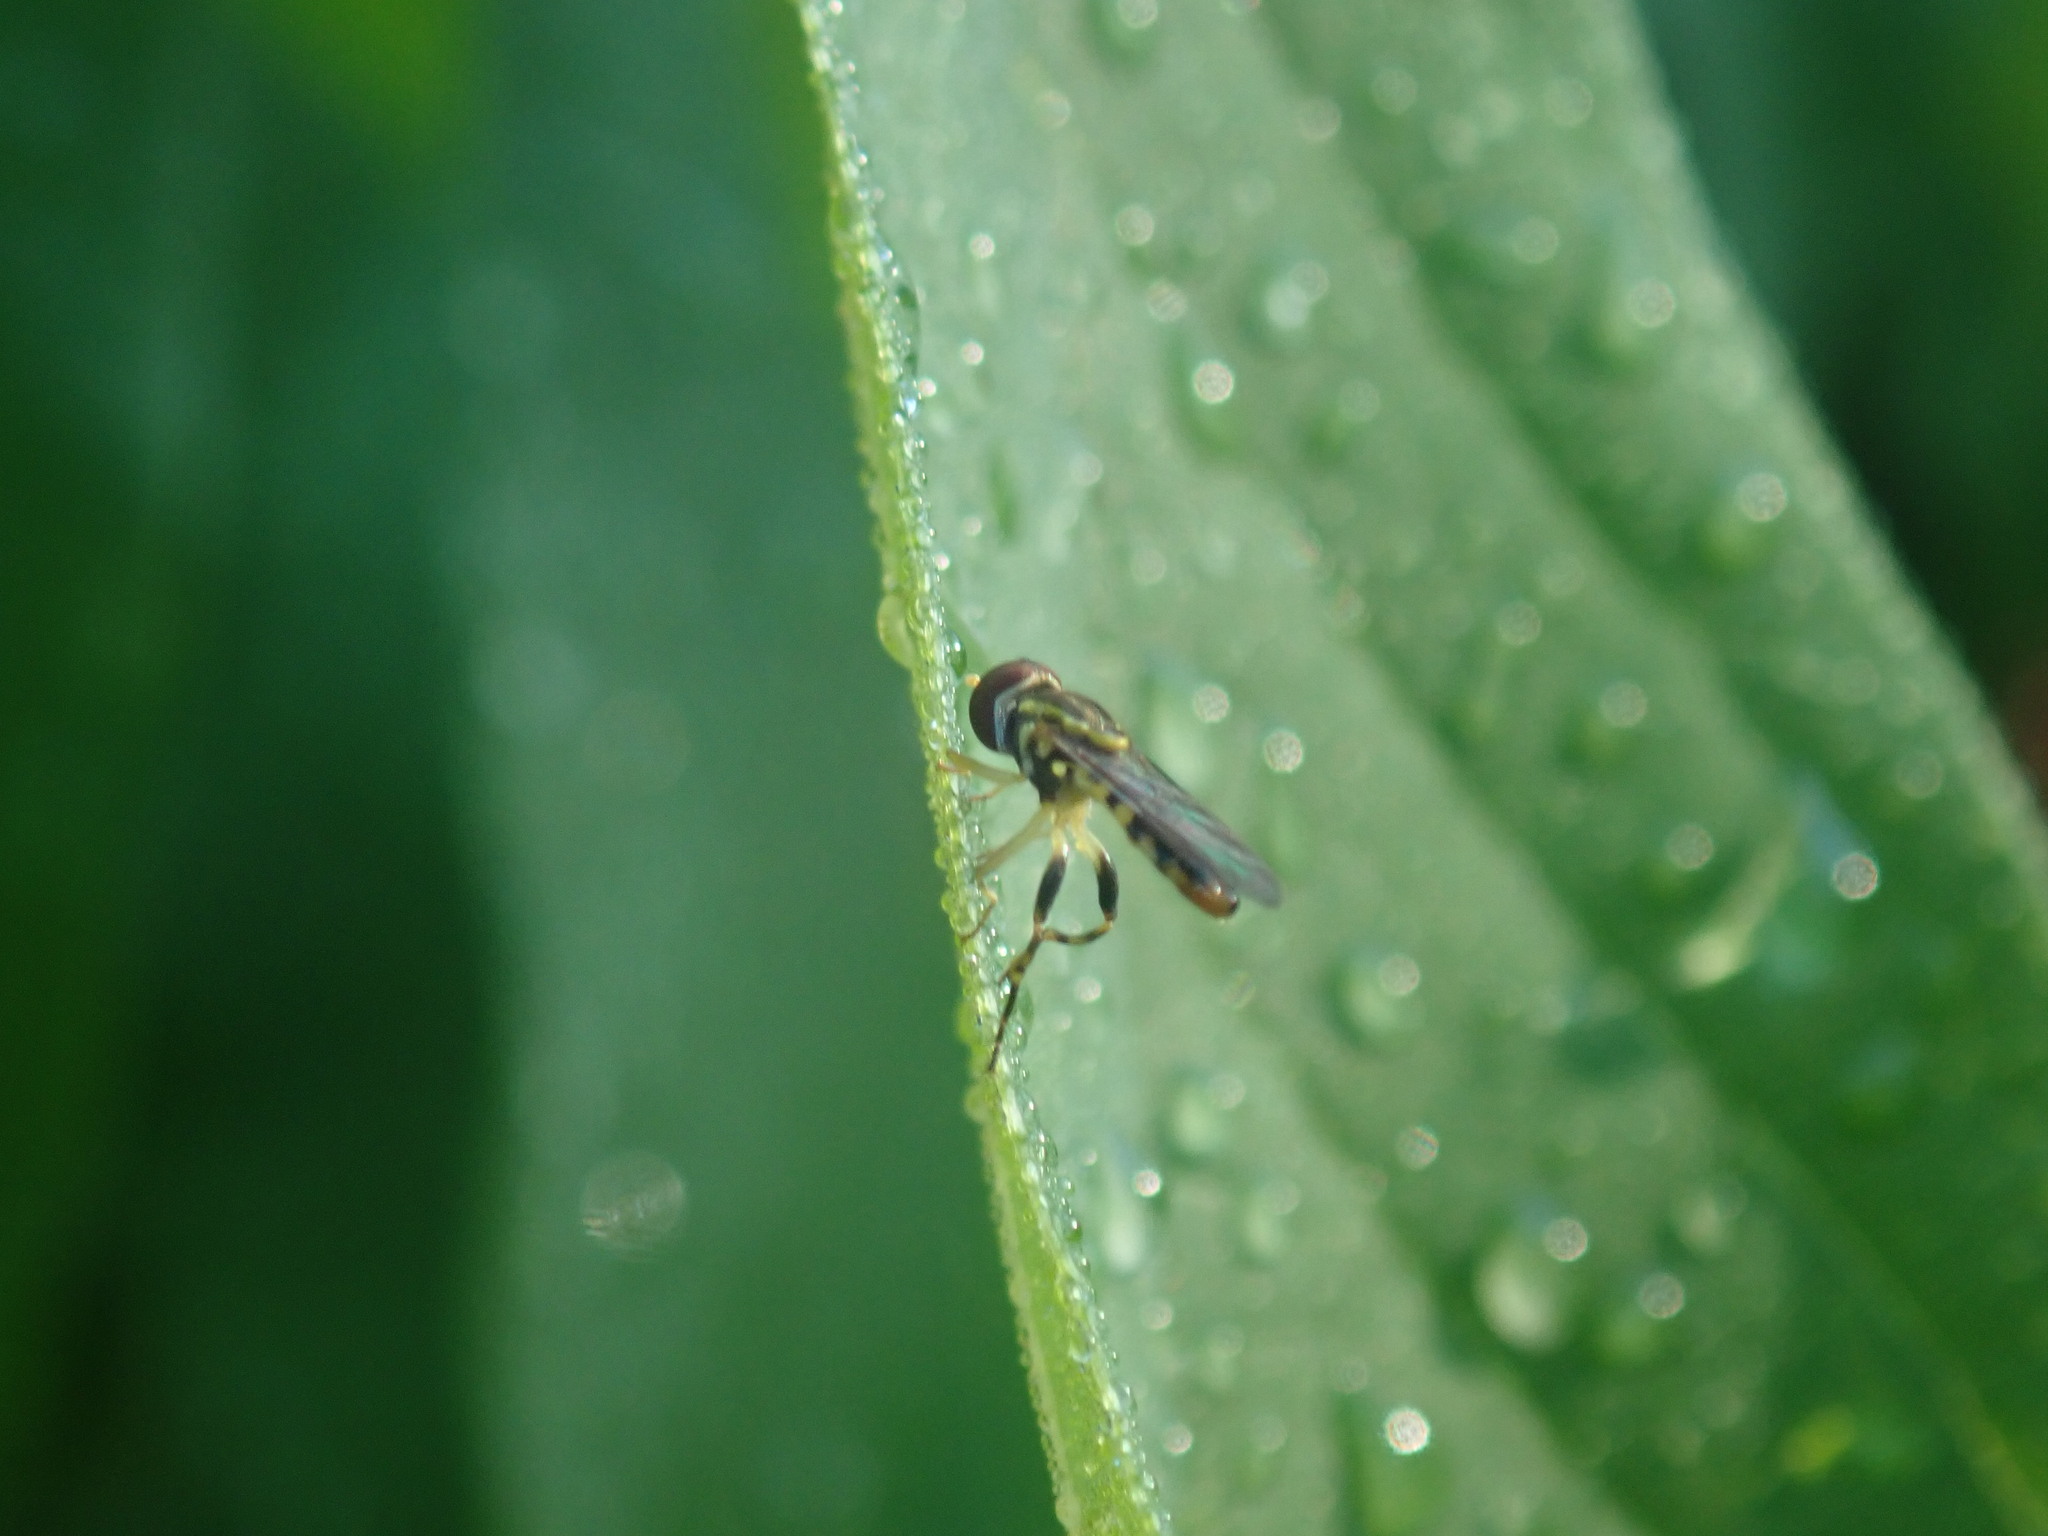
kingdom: Animalia
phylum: Arthropoda
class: Insecta
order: Diptera
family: Syrphidae
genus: Toxomerus
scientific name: Toxomerus geminatus
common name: Eastern calligrapher
